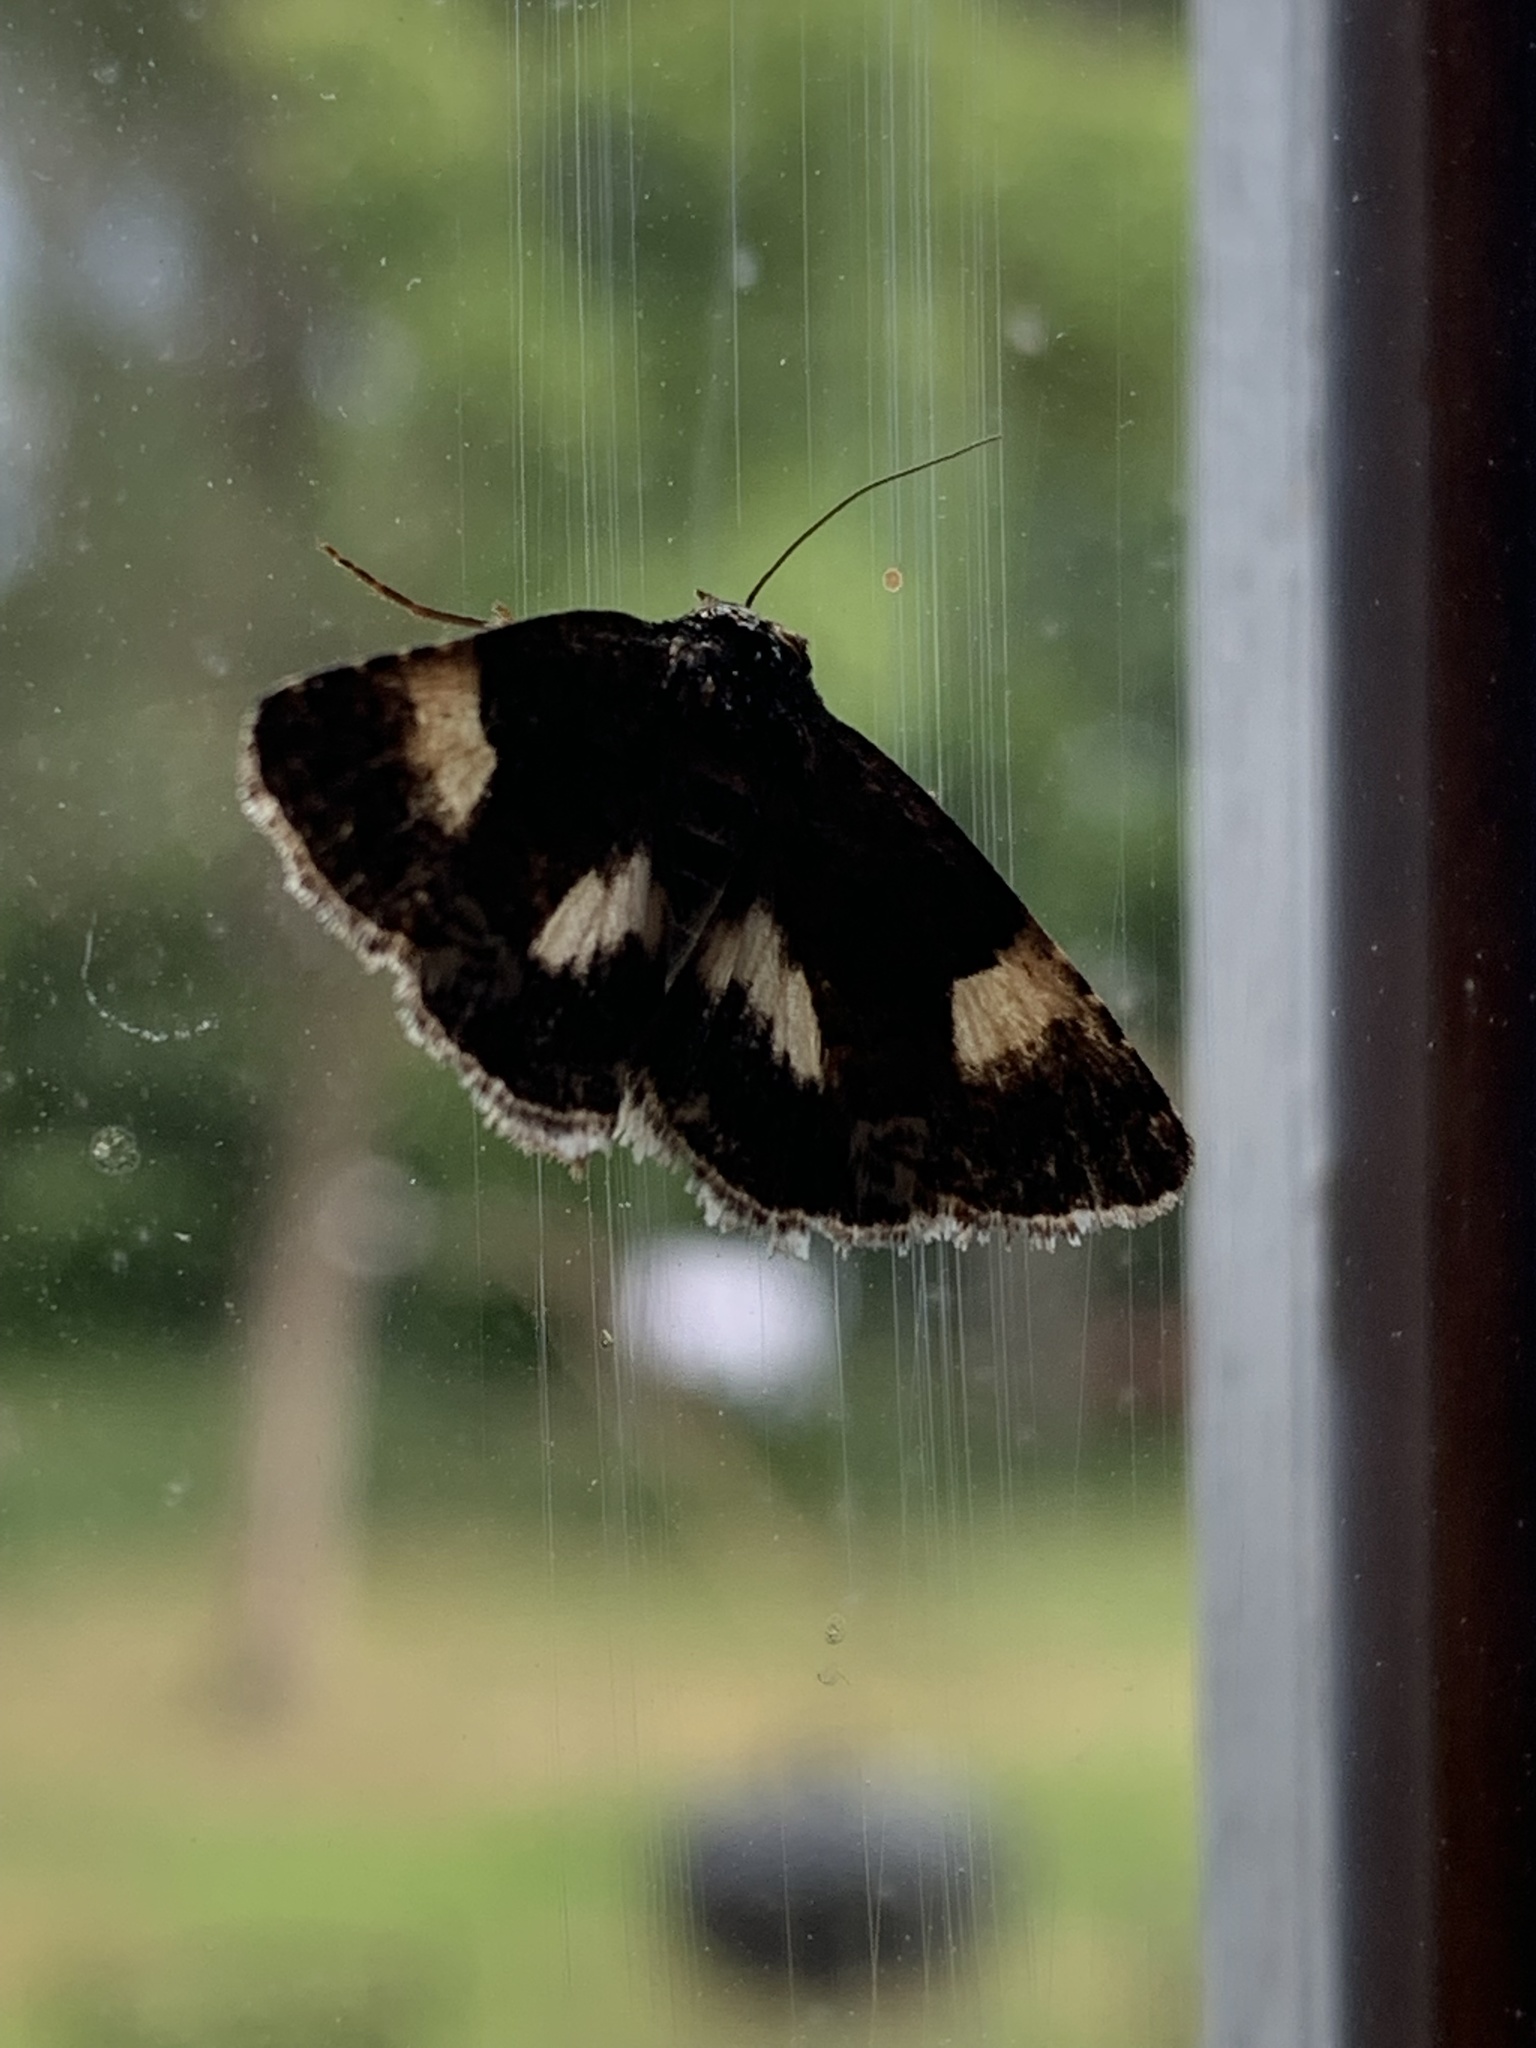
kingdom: Animalia
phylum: Arthropoda
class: Insecta
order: Lepidoptera
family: Erebidae
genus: Tyta
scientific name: Tyta luctuosa
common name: Four-spotted
